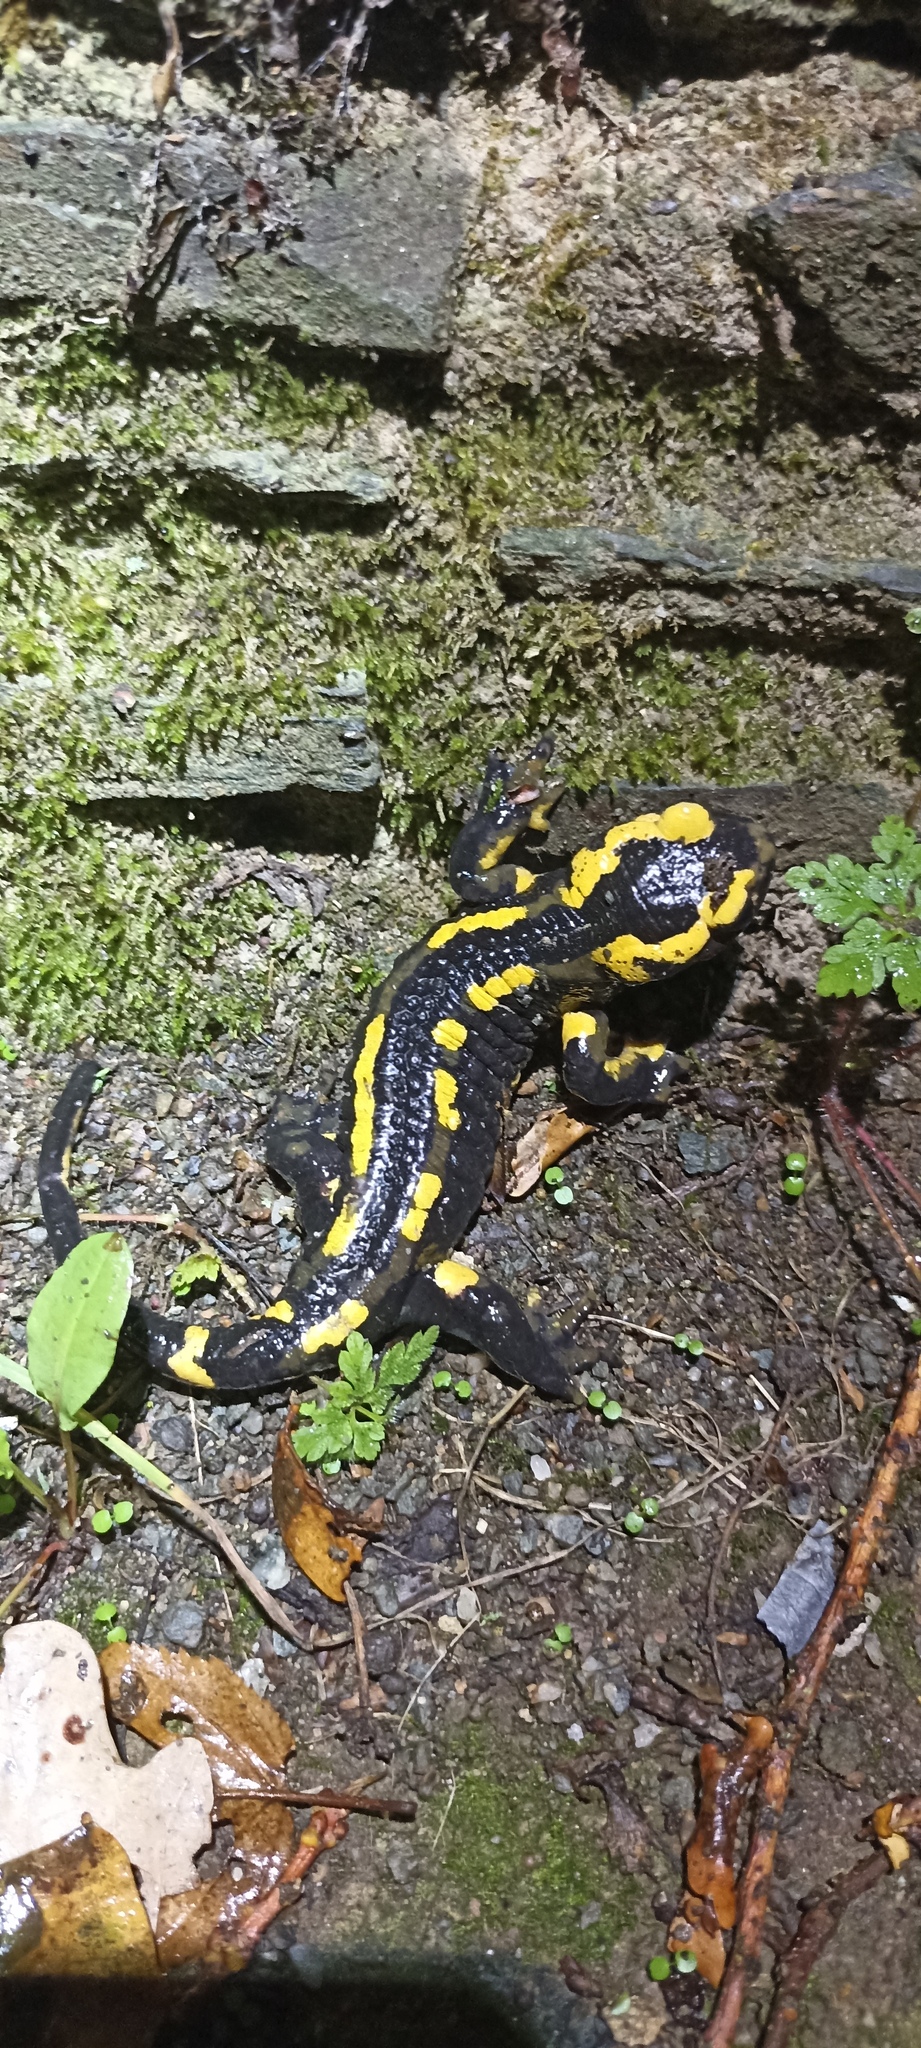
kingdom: Animalia
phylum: Chordata
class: Amphibia
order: Caudata
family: Salamandridae
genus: Salamandra
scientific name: Salamandra salamandra
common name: Fire salamander
